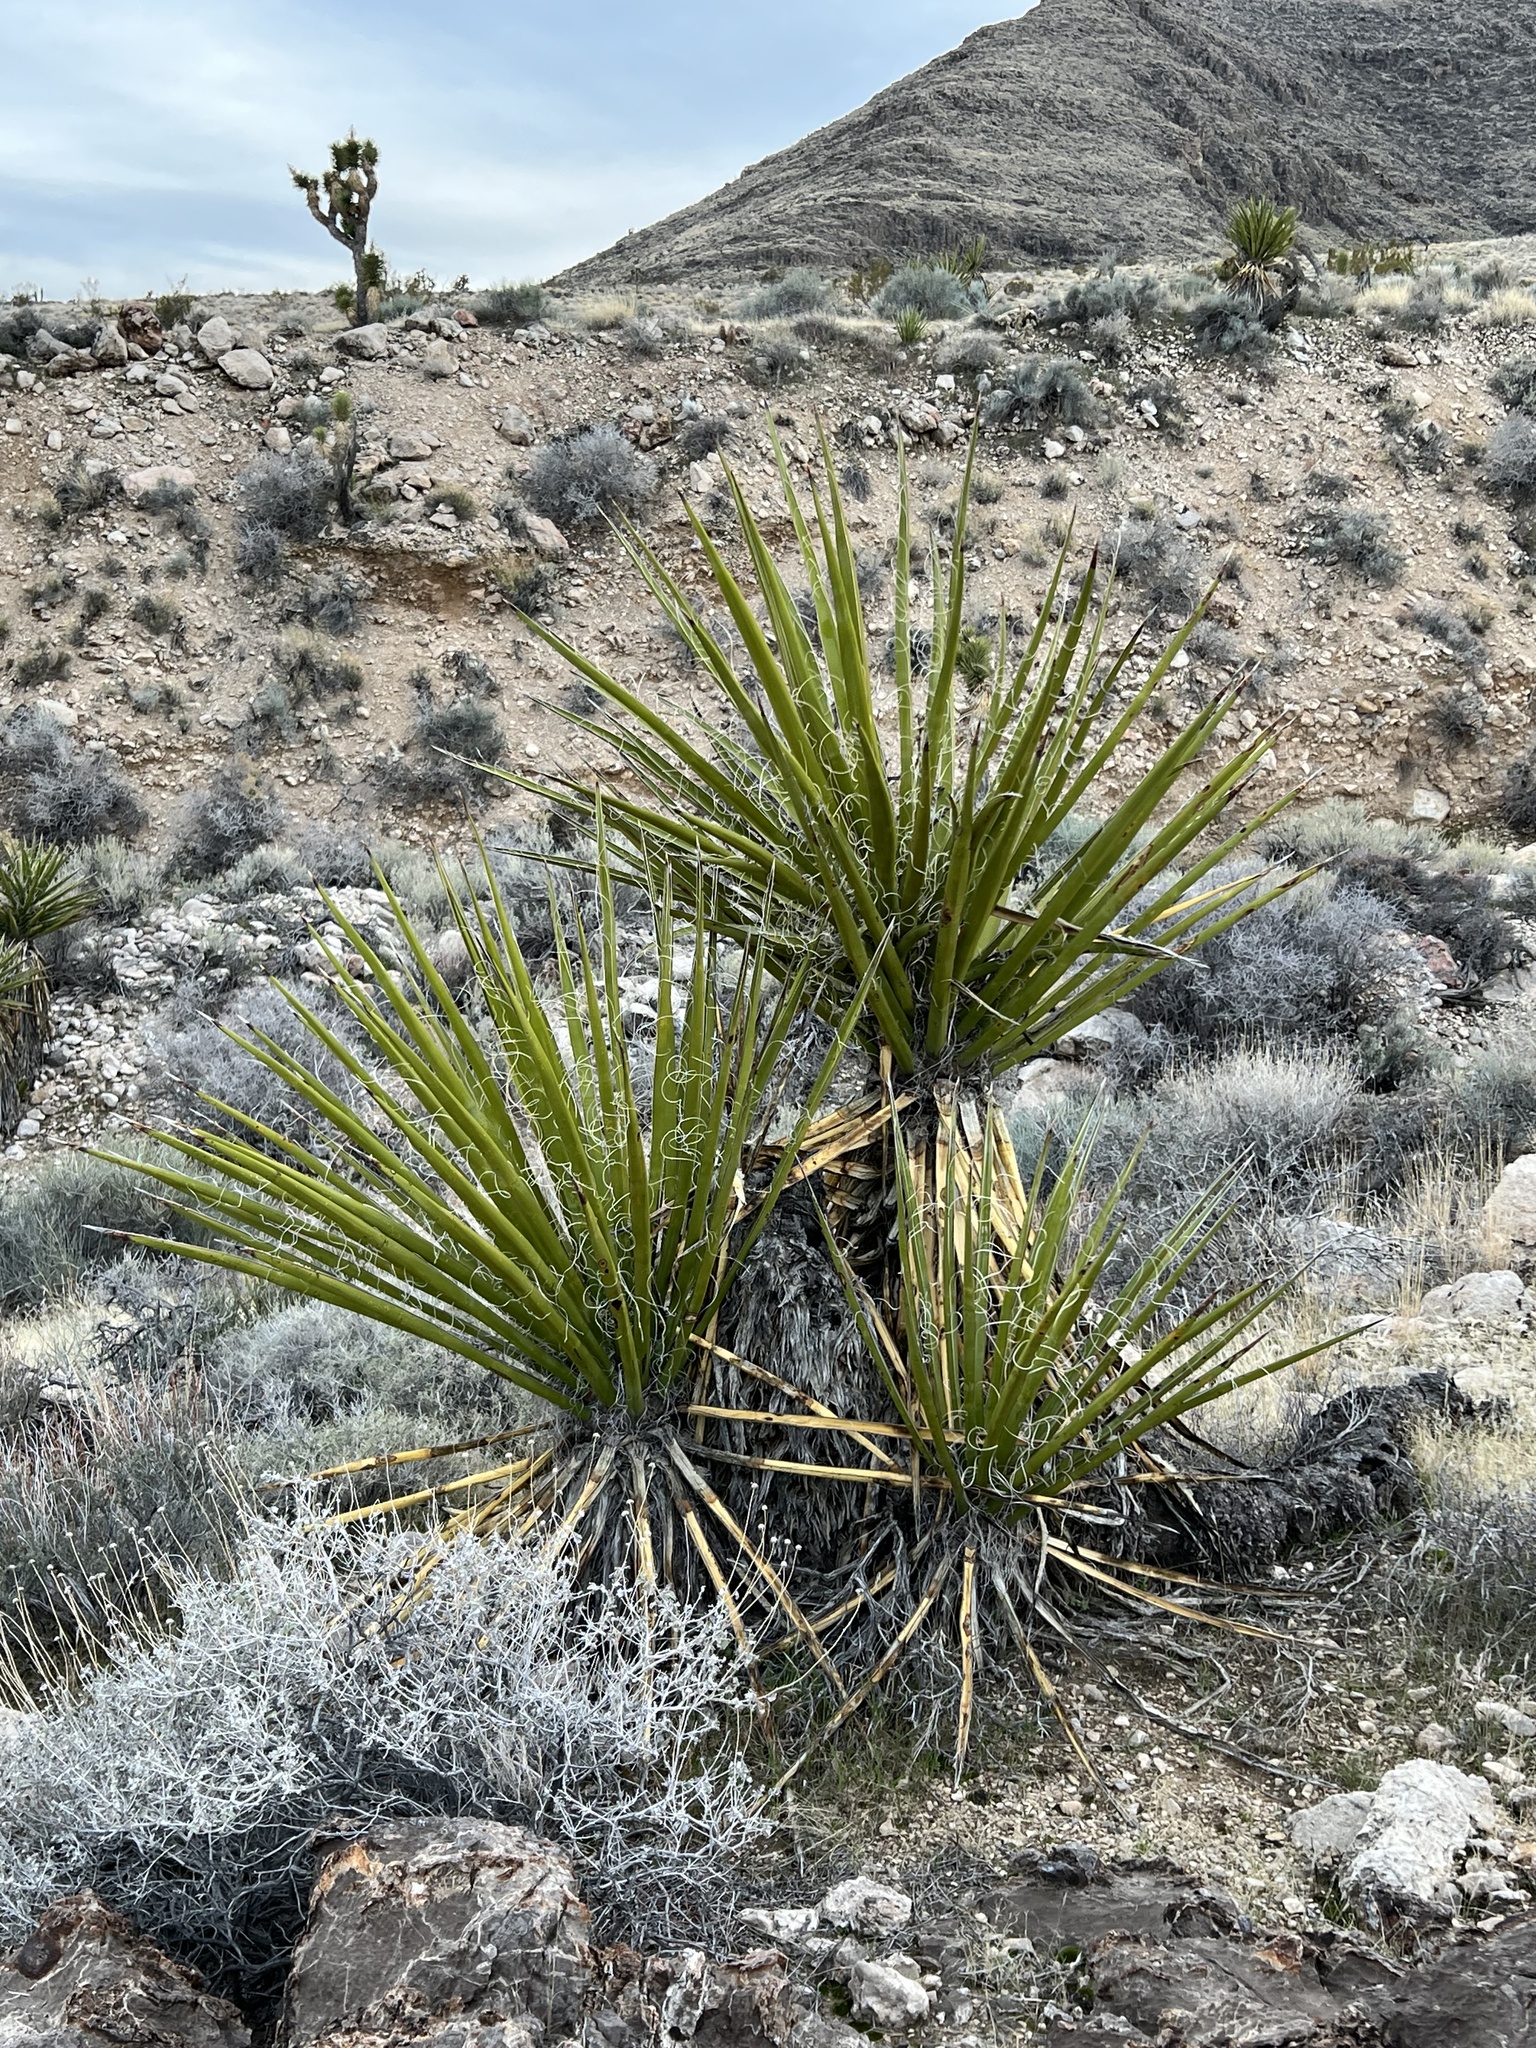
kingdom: Plantae
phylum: Tracheophyta
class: Liliopsida
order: Asparagales
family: Asparagaceae
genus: Yucca
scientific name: Yucca schidigera
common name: Mojave yucca
